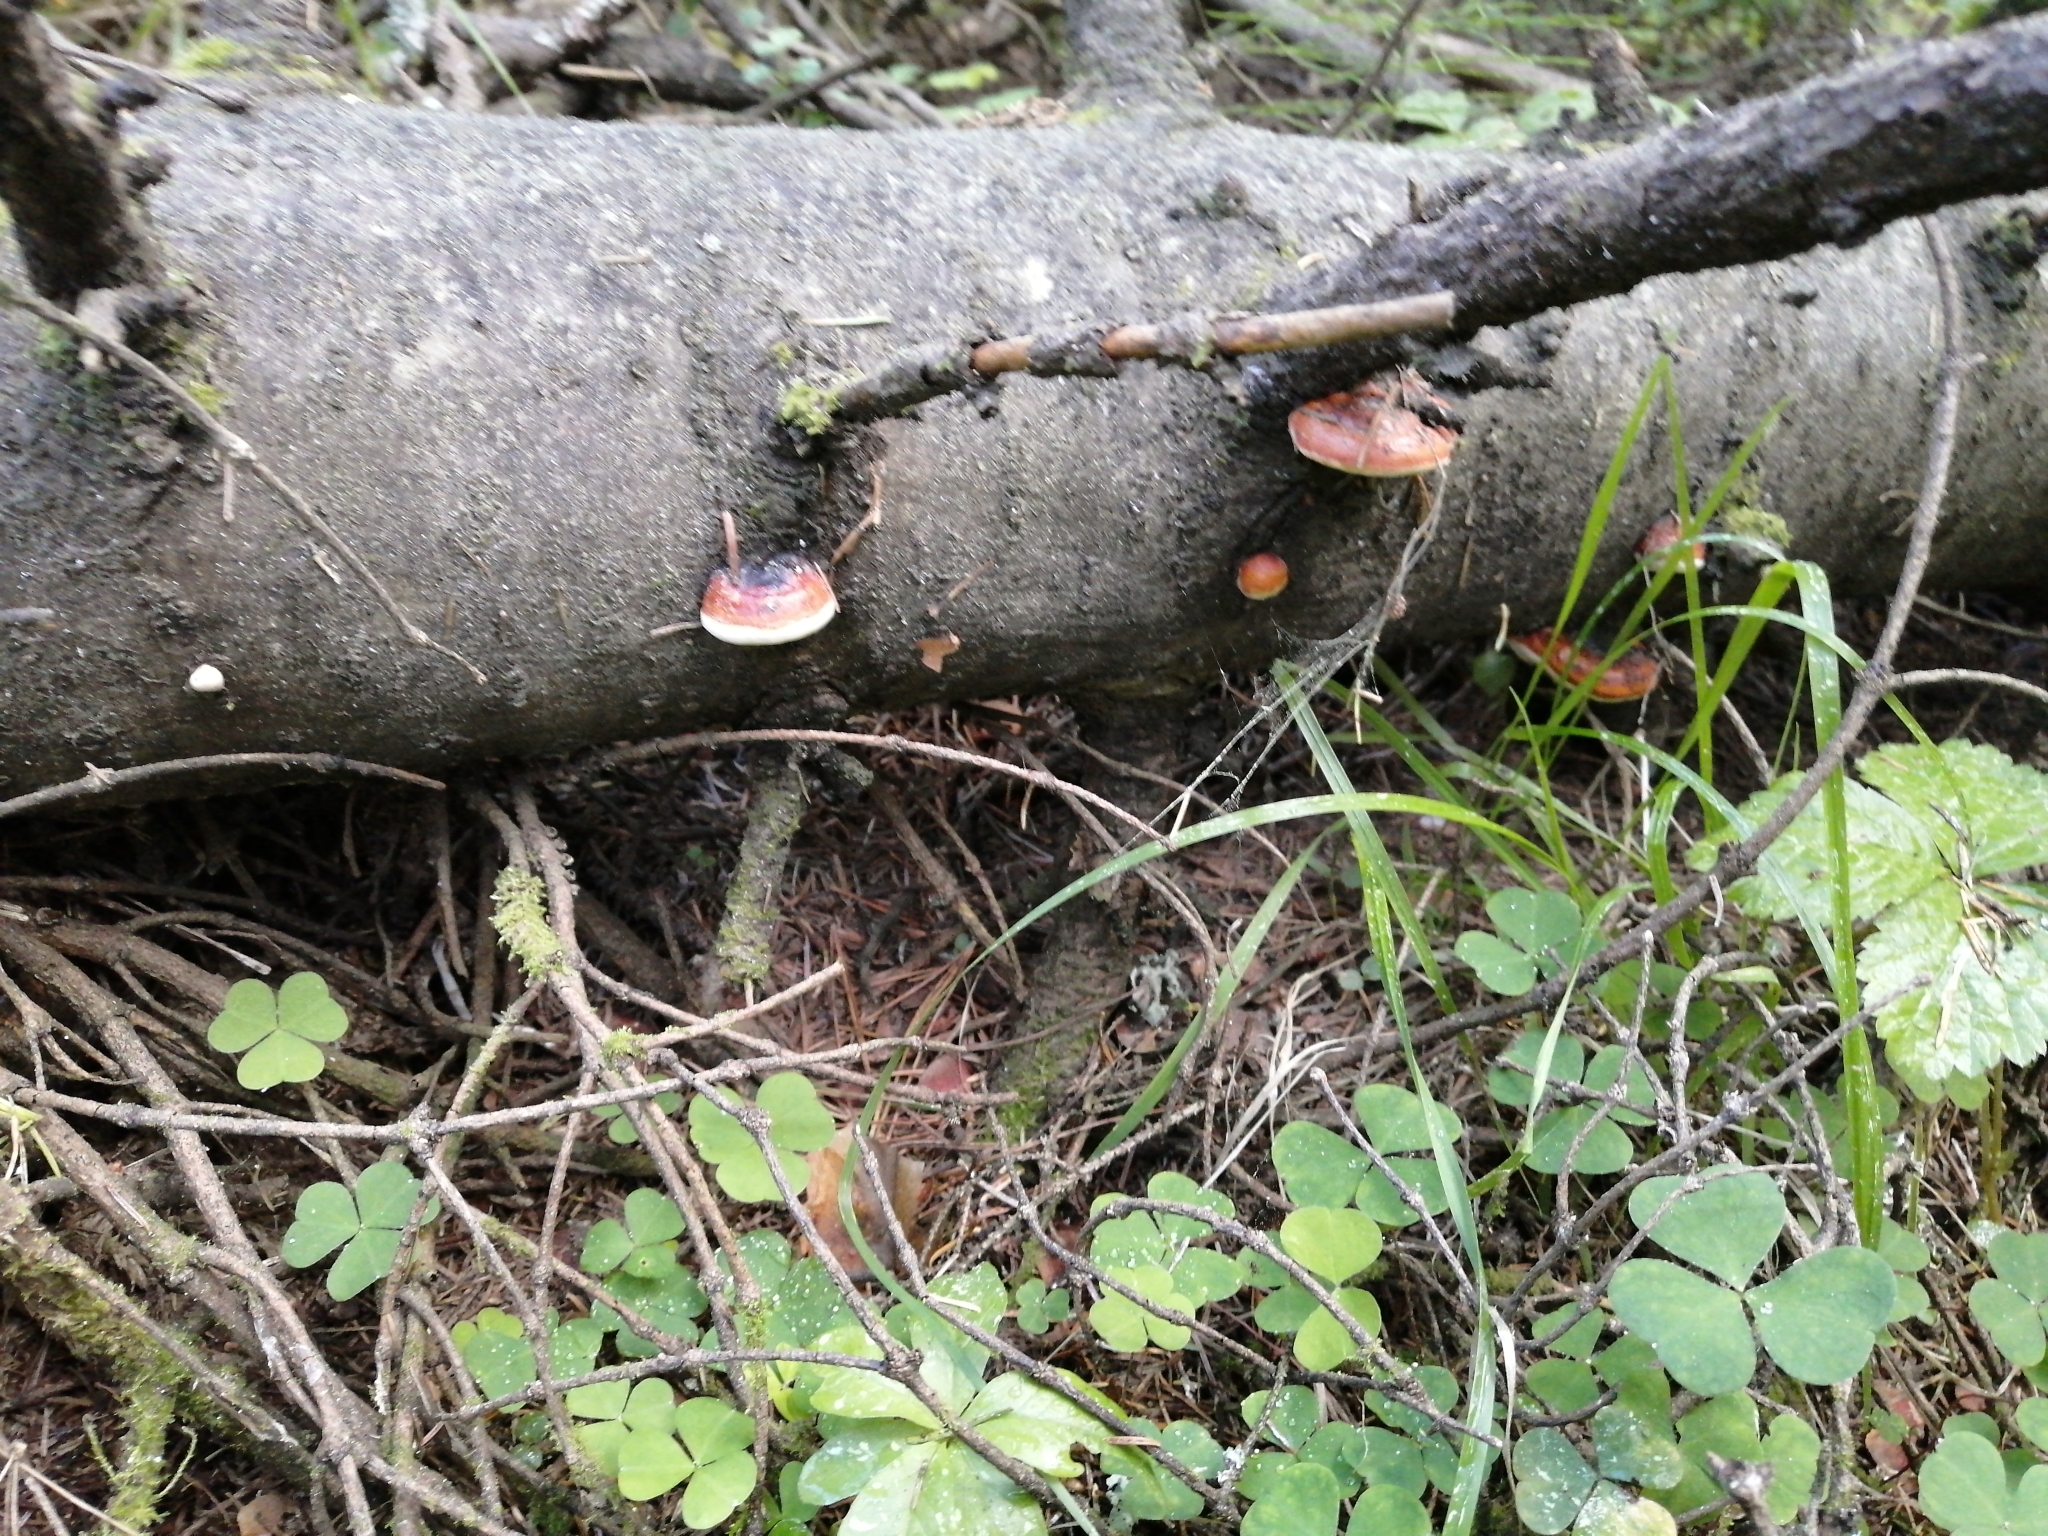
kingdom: Fungi
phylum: Basidiomycota
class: Agaricomycetes
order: Polyporales
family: Fomitopsidaceae
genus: Fomitopsis
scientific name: Fomitopsis pinicola
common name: Red-belted bracket
